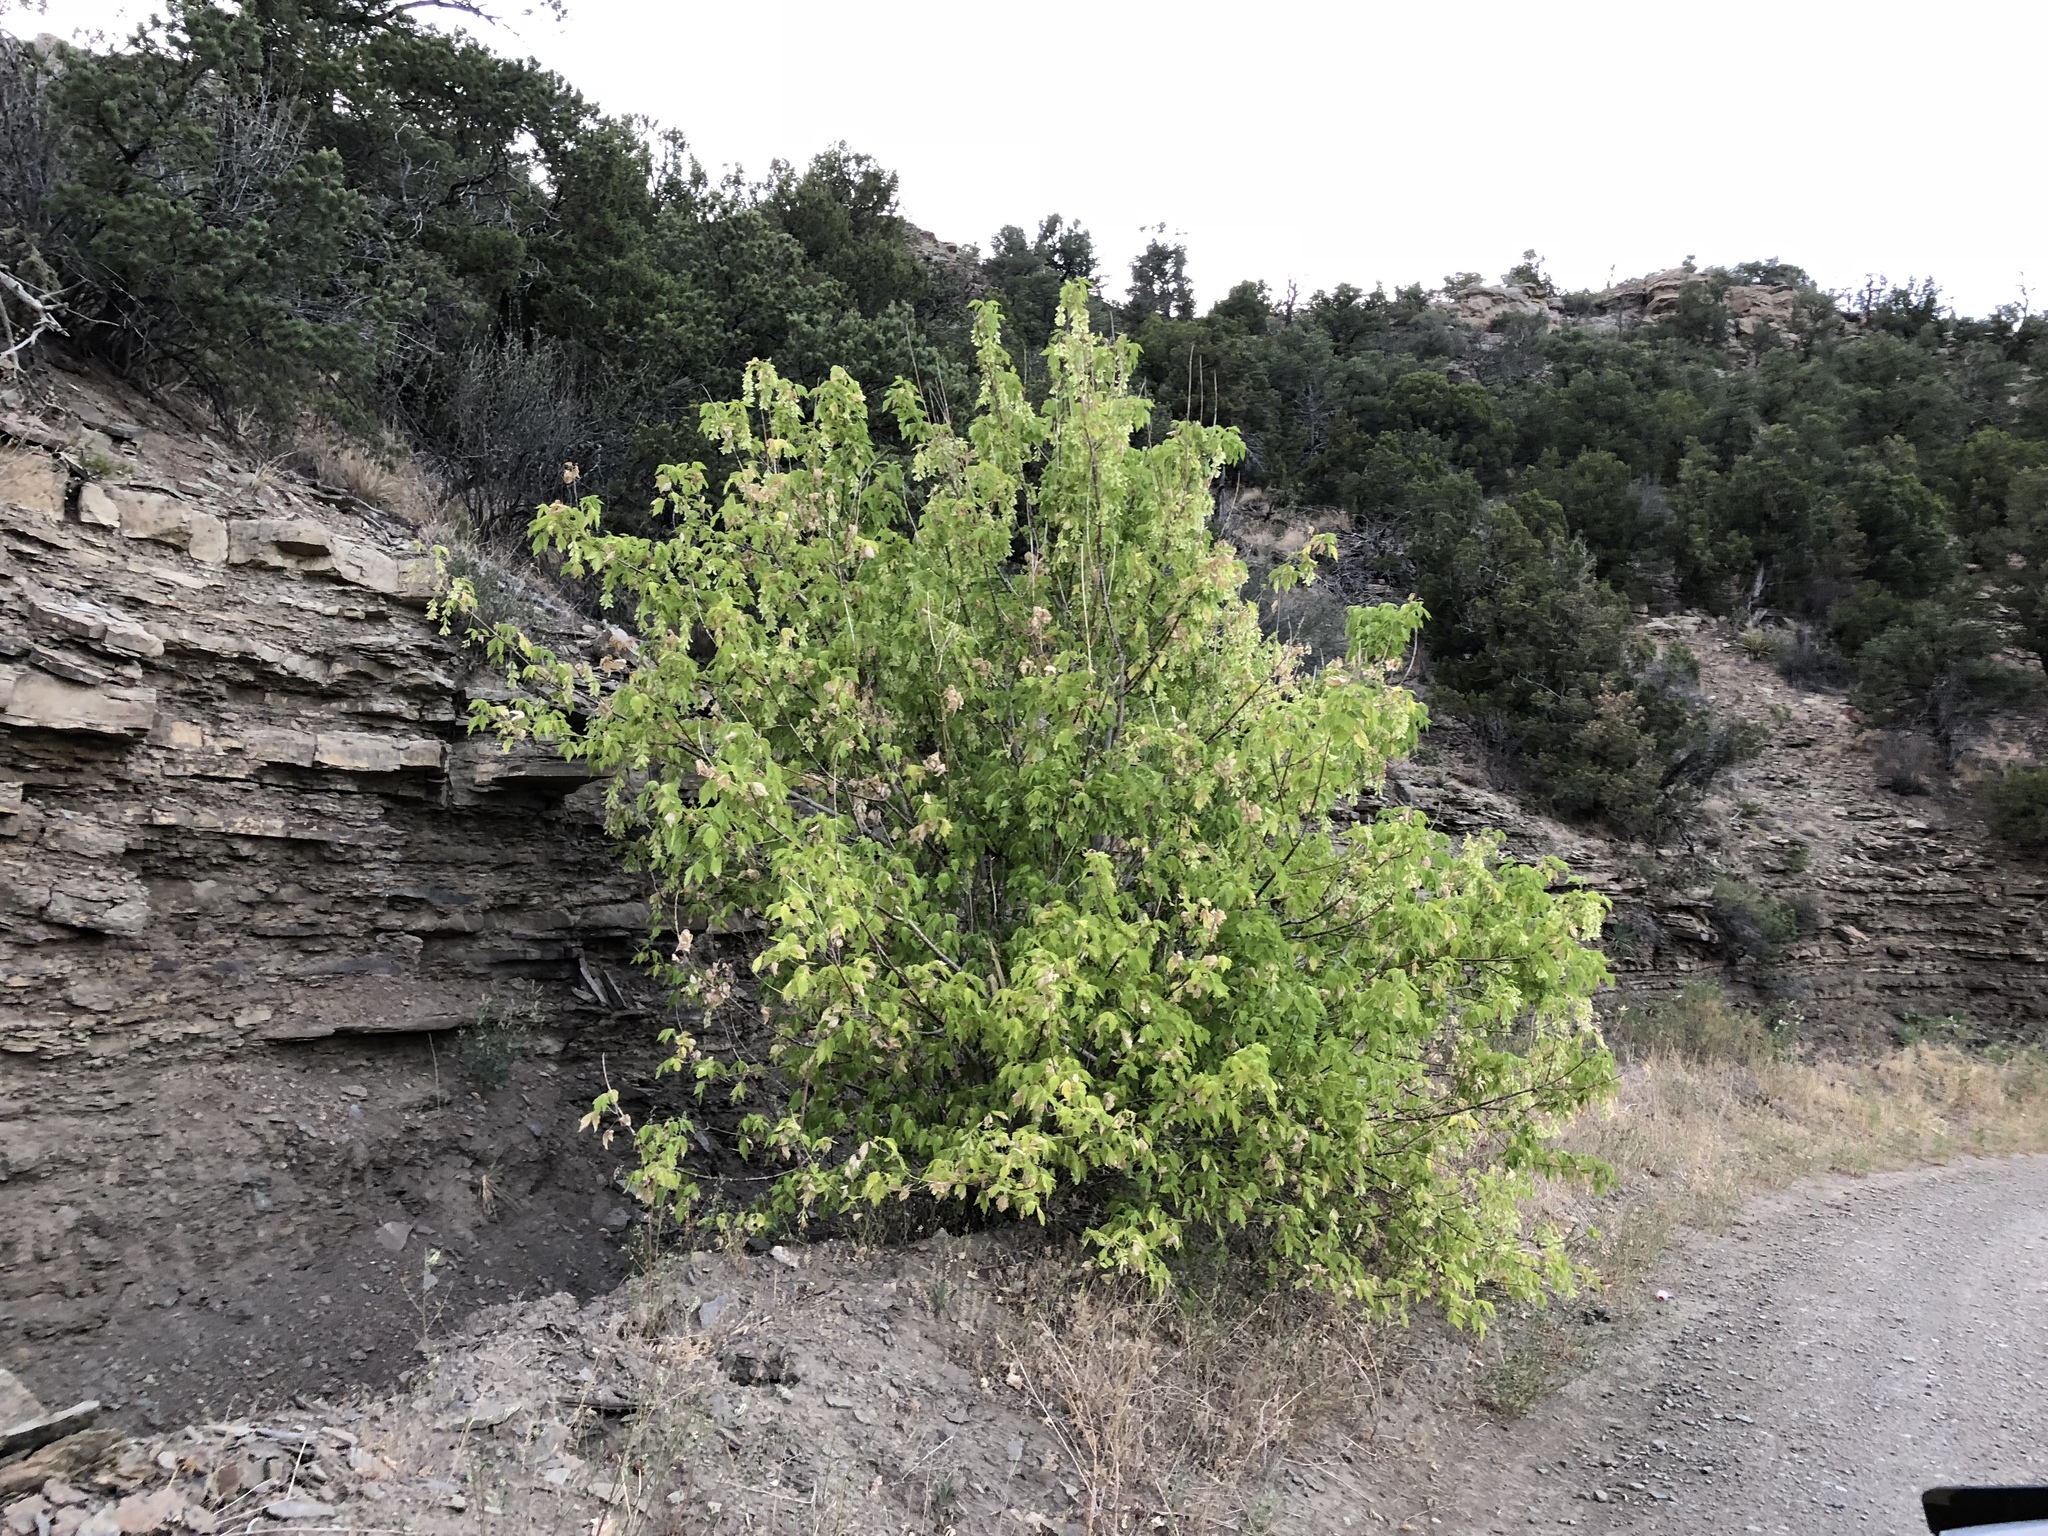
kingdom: Plantae
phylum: Tracheophyta
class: Magnoliopsida
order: Sapindales
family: Sapindaceae
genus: Acer
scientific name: Acer negundo
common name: Ashleaf maple
